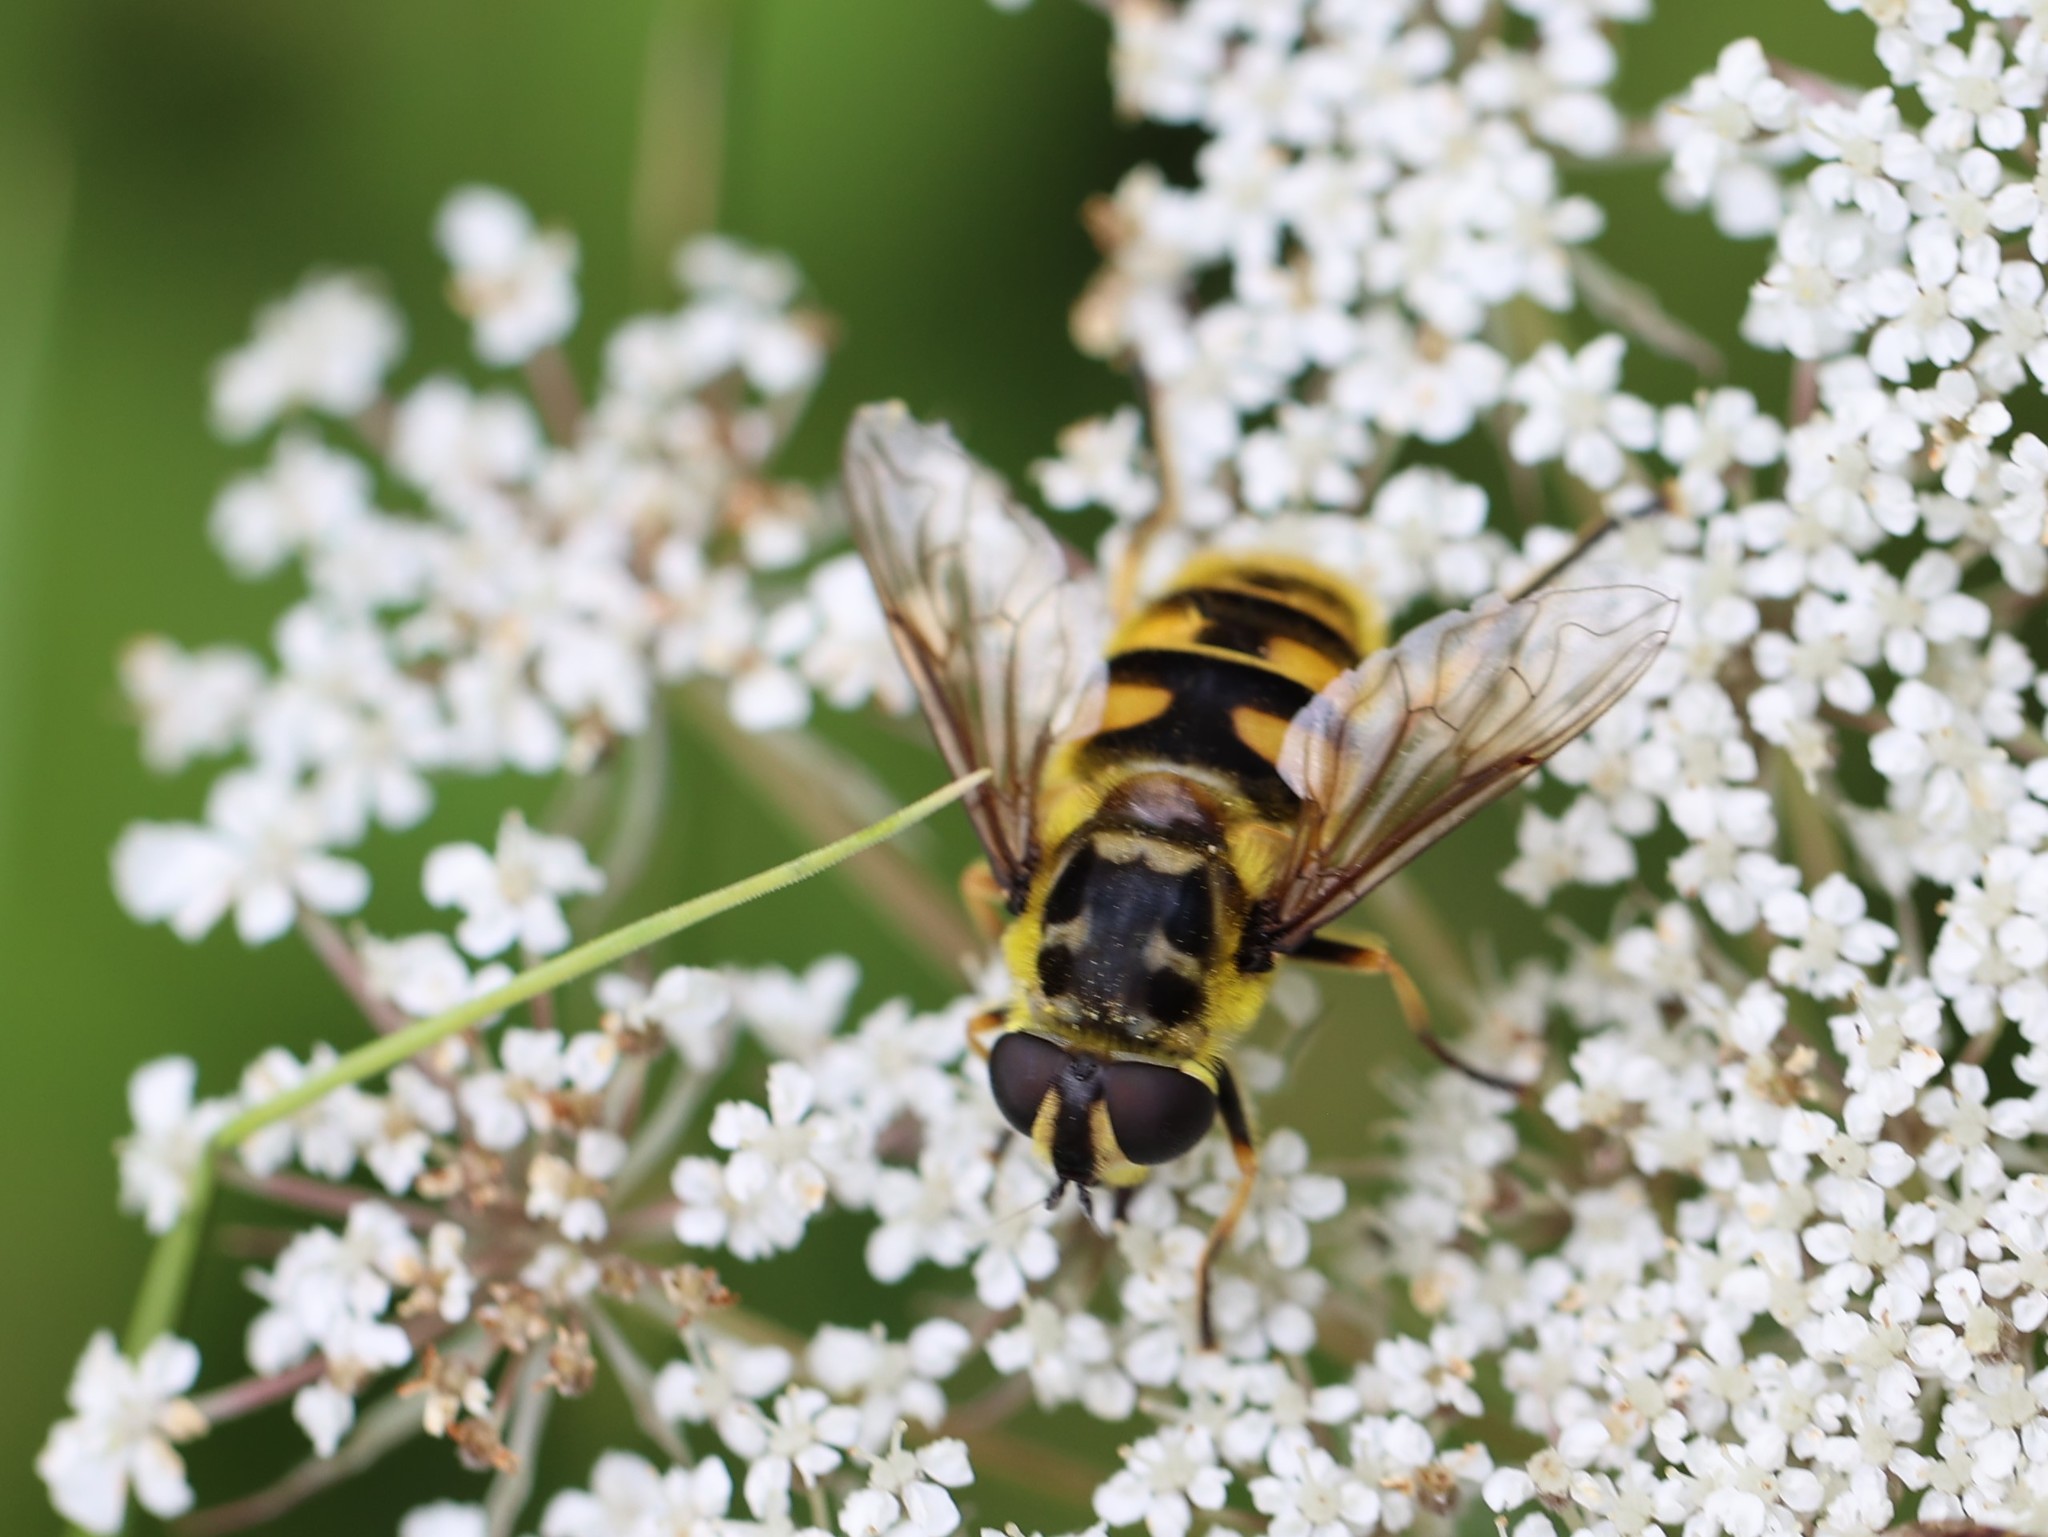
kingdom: Animalia
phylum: Arthropoda
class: Insecta
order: Diptera
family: Syrphidae
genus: Myathropa
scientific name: Myathropa florea
